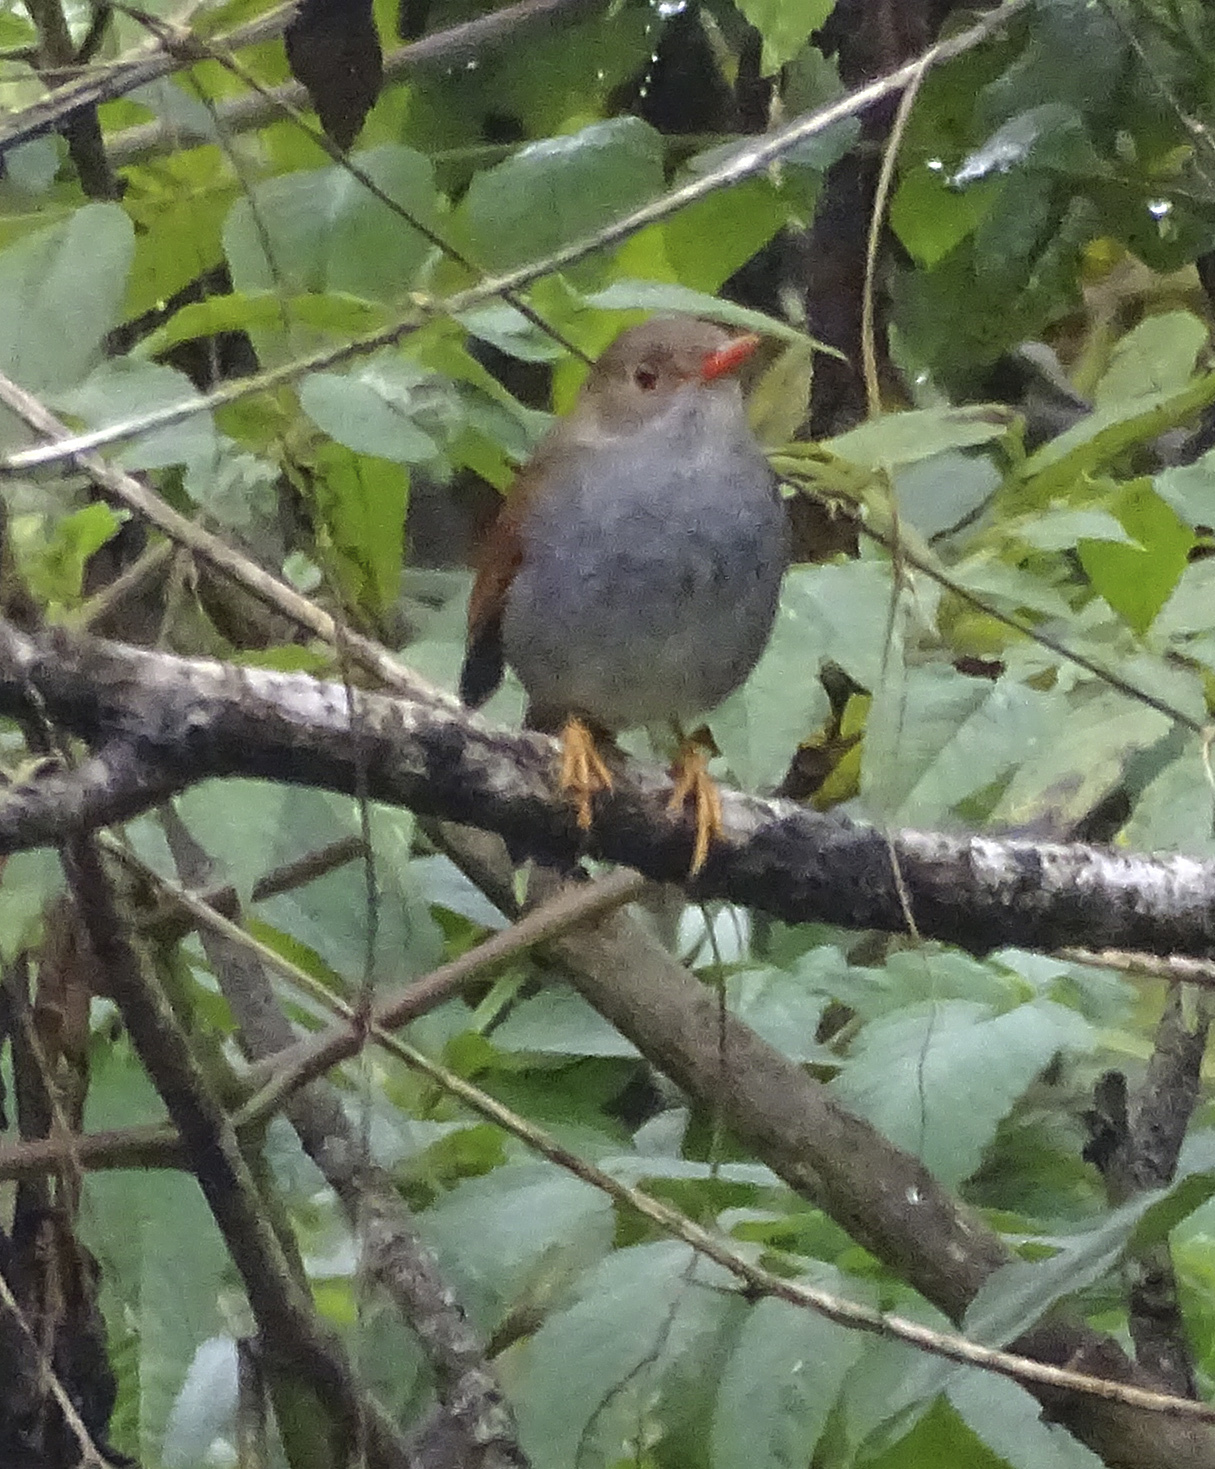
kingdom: Animalia
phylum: Chordata
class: Aves
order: Passeriformes
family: Turdidae
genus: Catharus
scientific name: Catharus aurantiirostris
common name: Orange-billed nightingale-thrush
